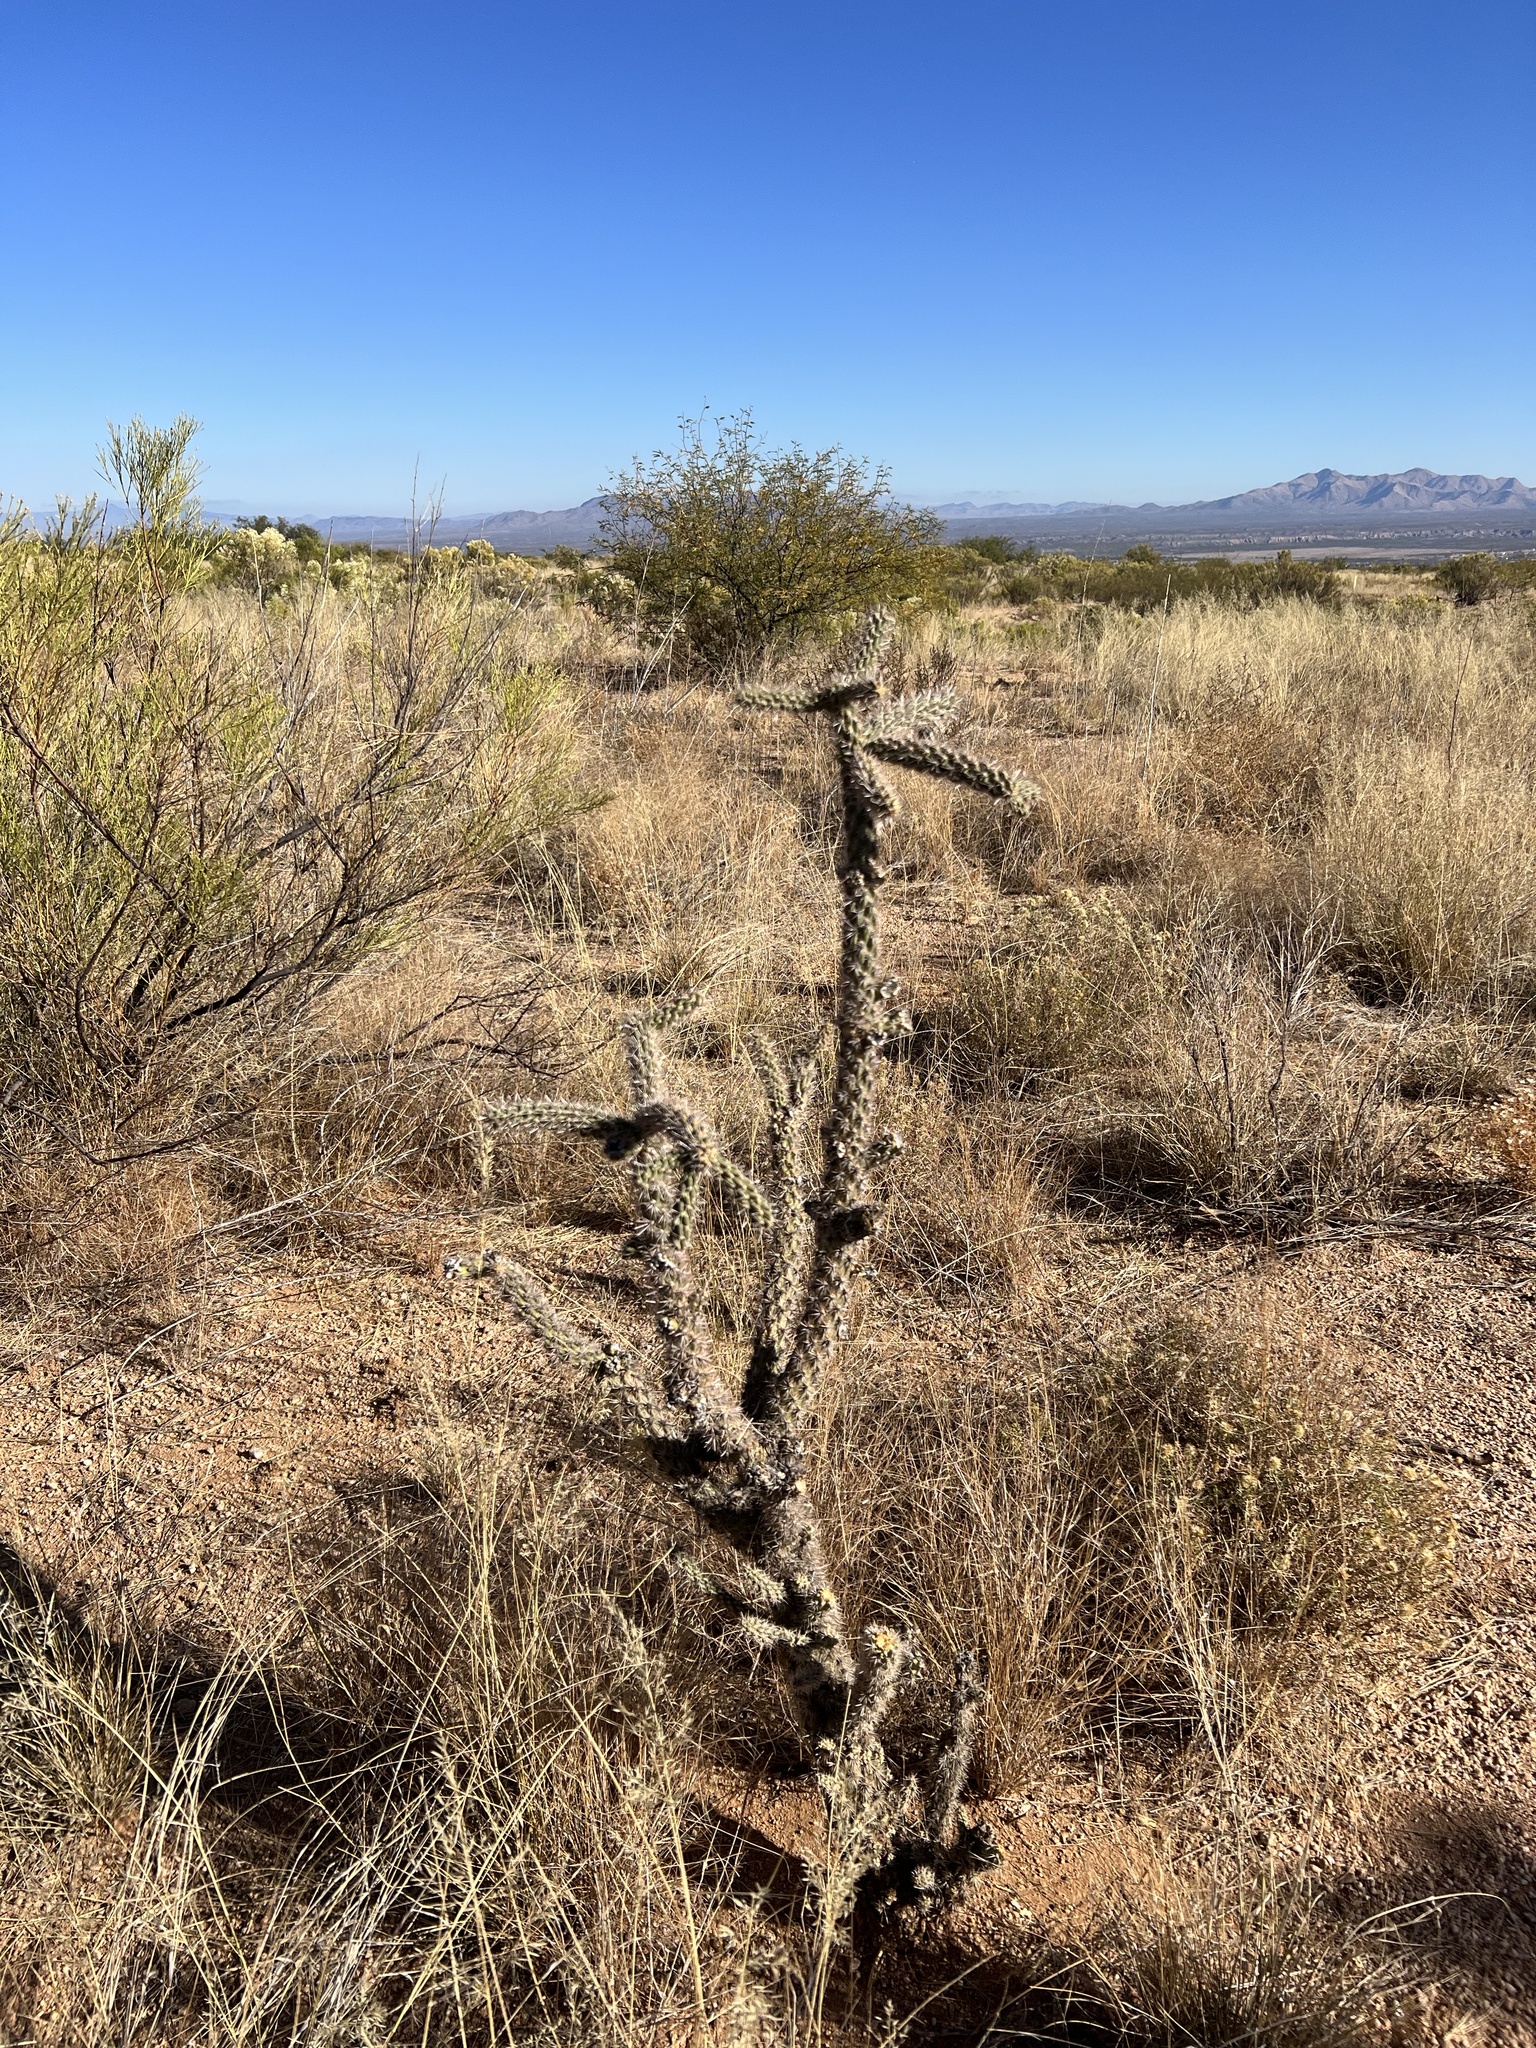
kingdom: Plantae
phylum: Tracheophyta
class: Magnoliopsida
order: Caryophyllales
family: Cactaceae
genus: Cylindropuntia
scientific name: Cylindropuntia imbricata
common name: Candelabrum cactus
